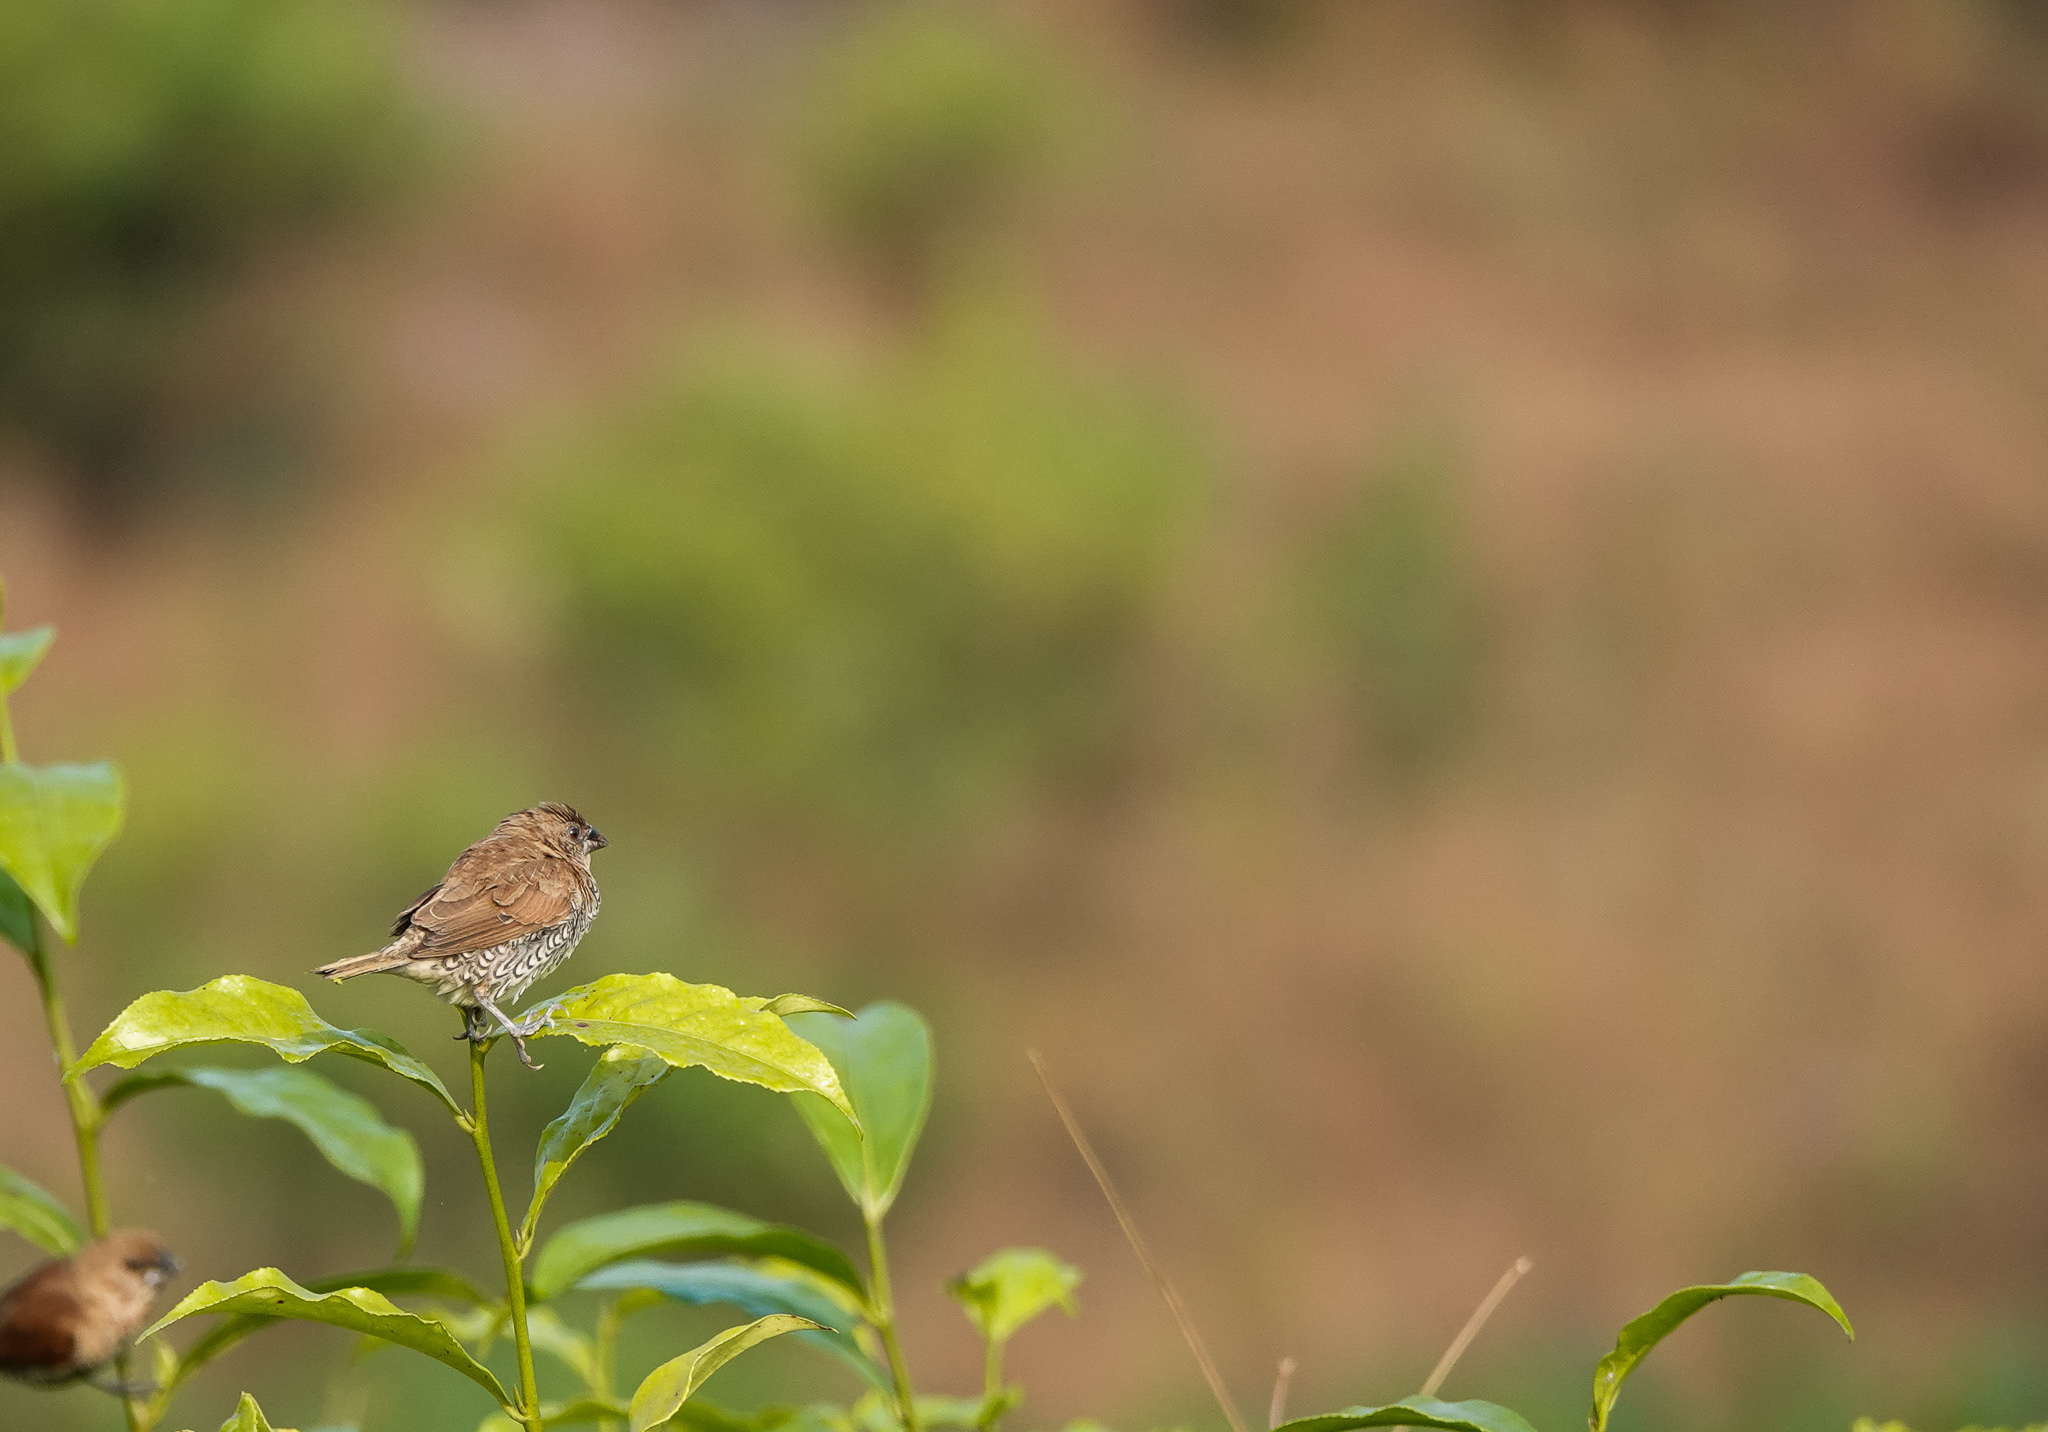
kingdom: Animalia
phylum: Chordata
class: Aves
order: Passeriformes
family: Estrildidae
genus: Lonchura
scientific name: Lonchura punctulata
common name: Scaly-breasted munia
